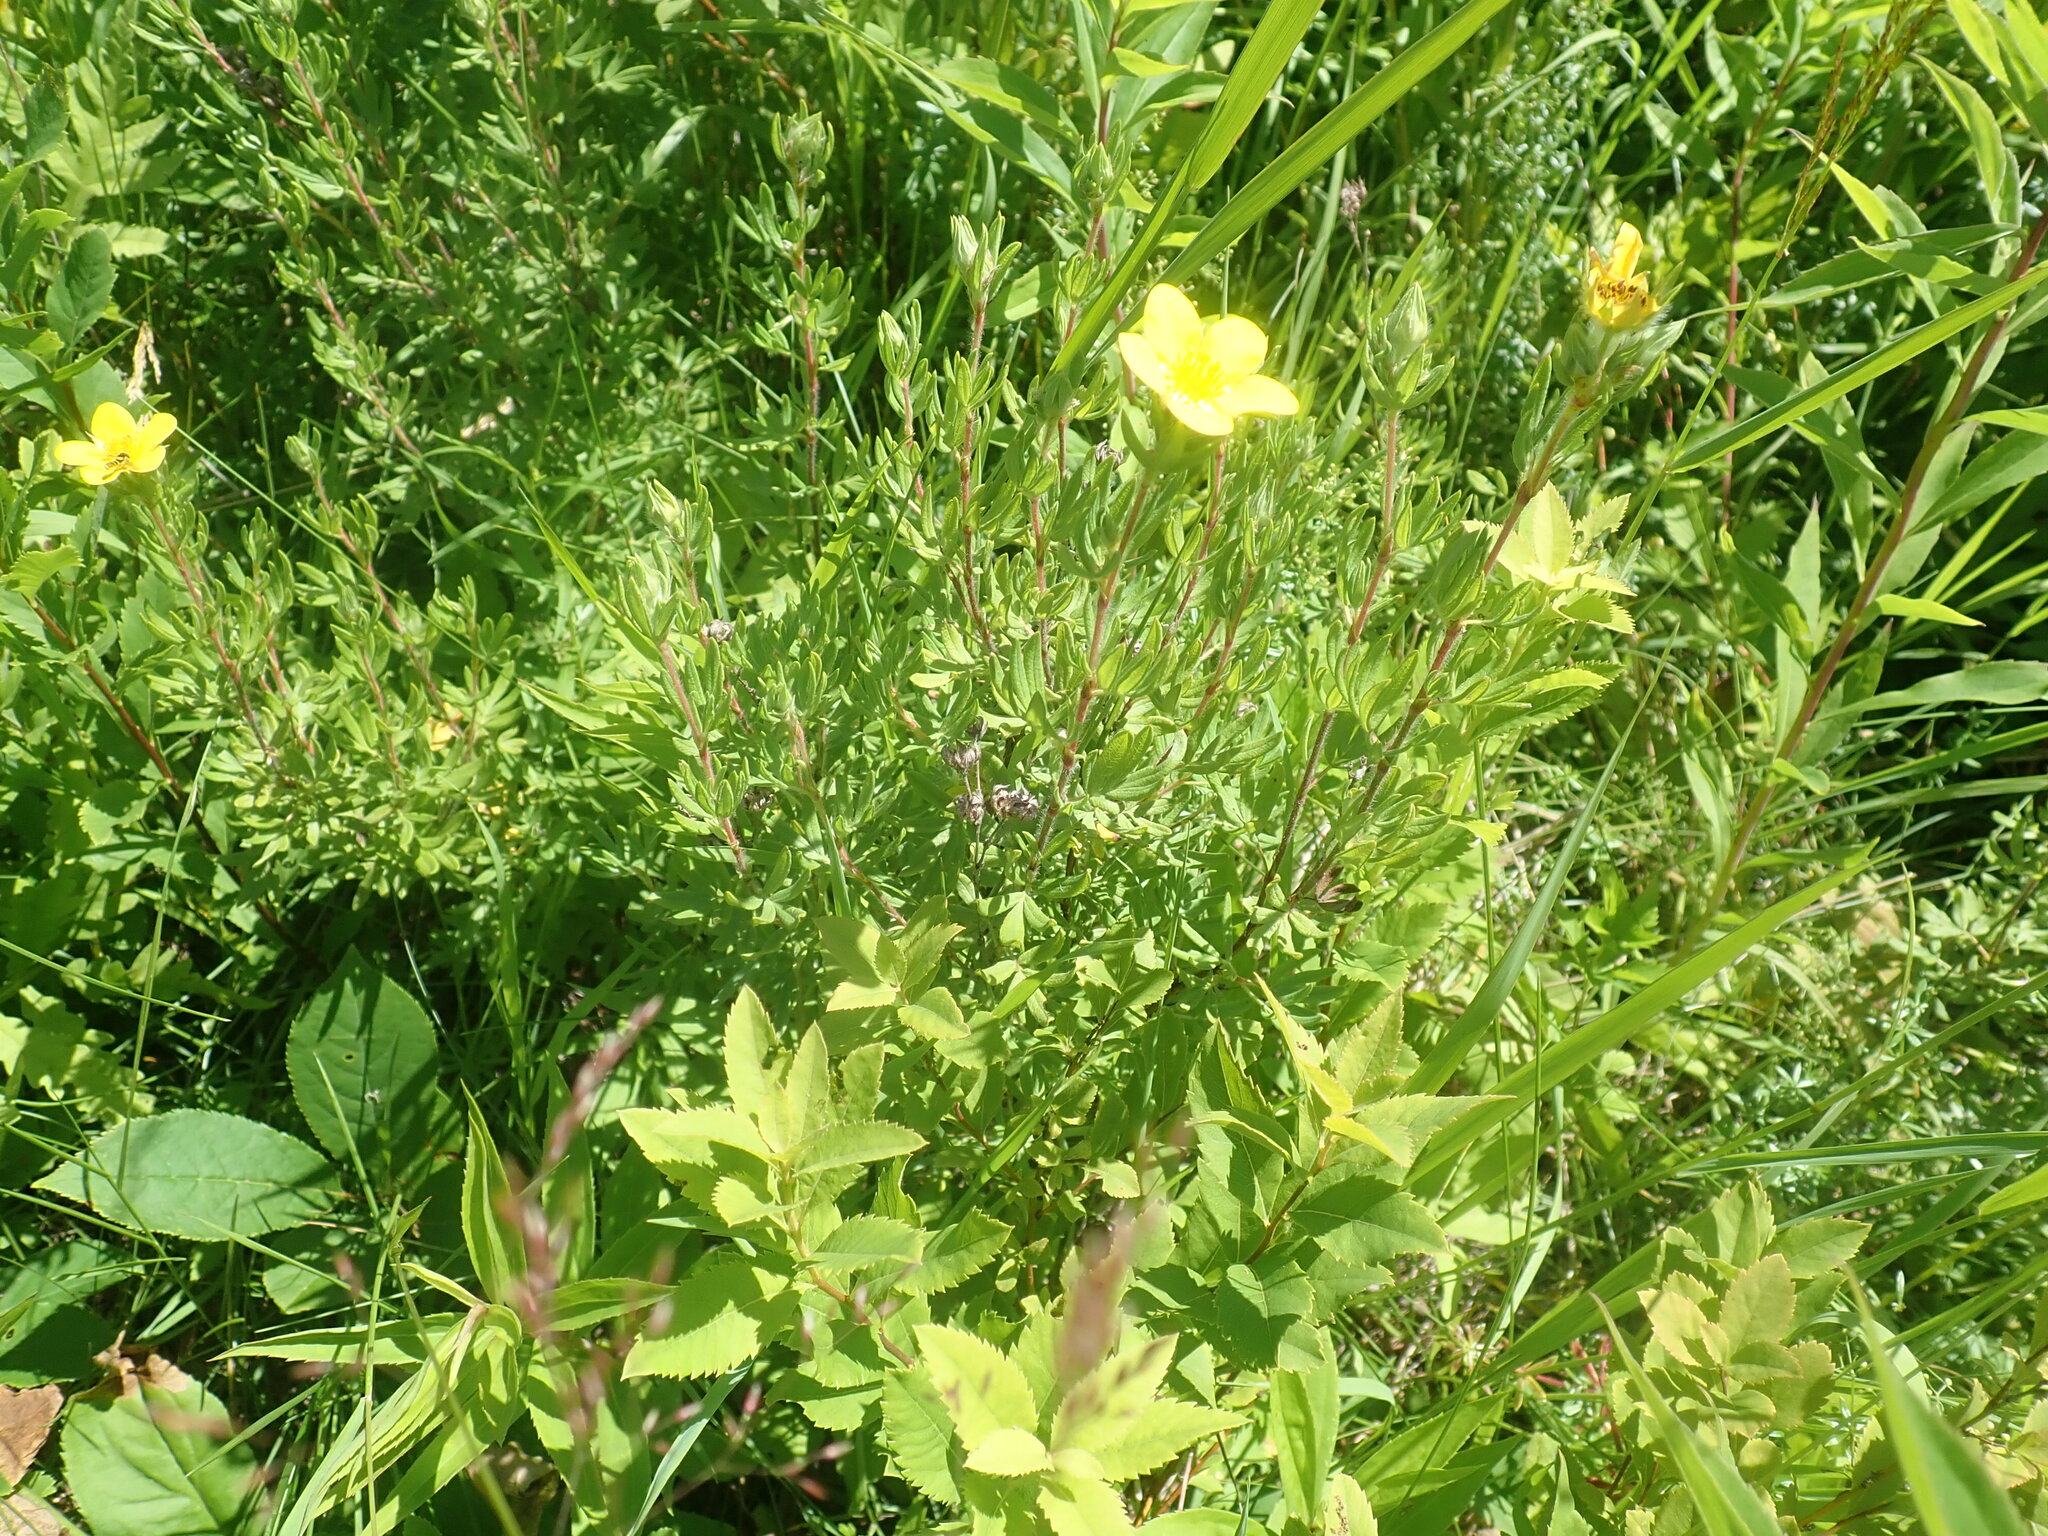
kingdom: Plantae
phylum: Tracheophyta
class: Magnoliopsida
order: Rosales
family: Rosaceae
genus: Dasiphora
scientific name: Dasiphora fruticosa
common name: Shrubby cinquefoil
